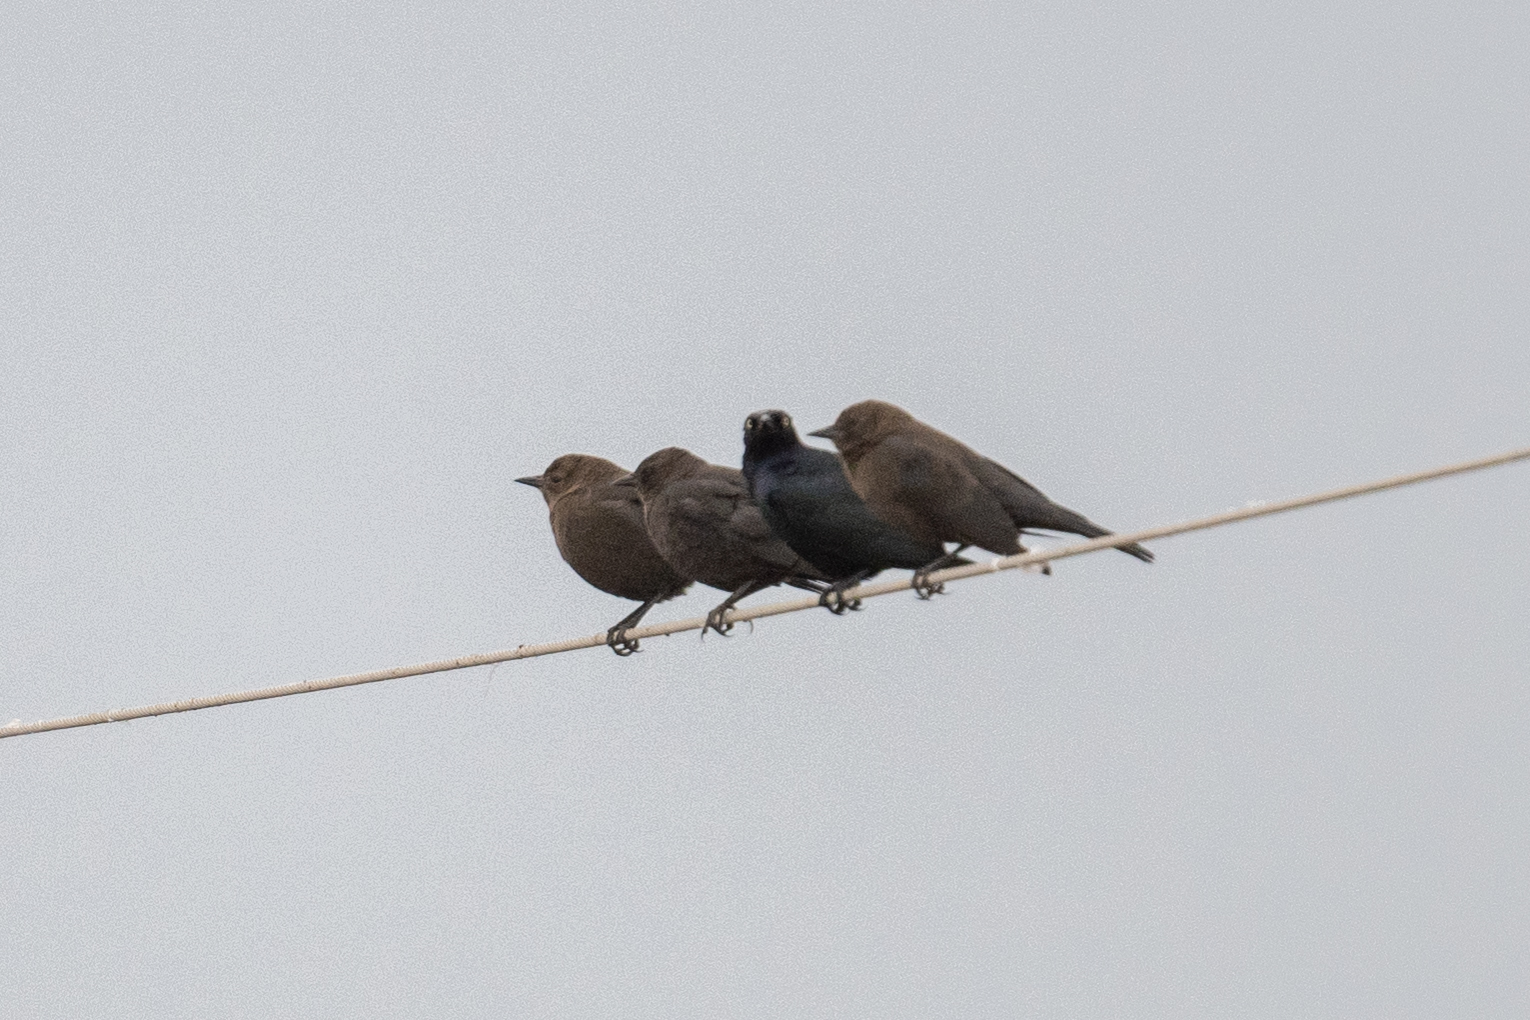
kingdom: Animalia
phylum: Chordata
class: Aves
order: Passeriformes
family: Icteridae
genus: Euphagus
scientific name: Euphagus cyanocephalus
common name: Brewer's blackbird
